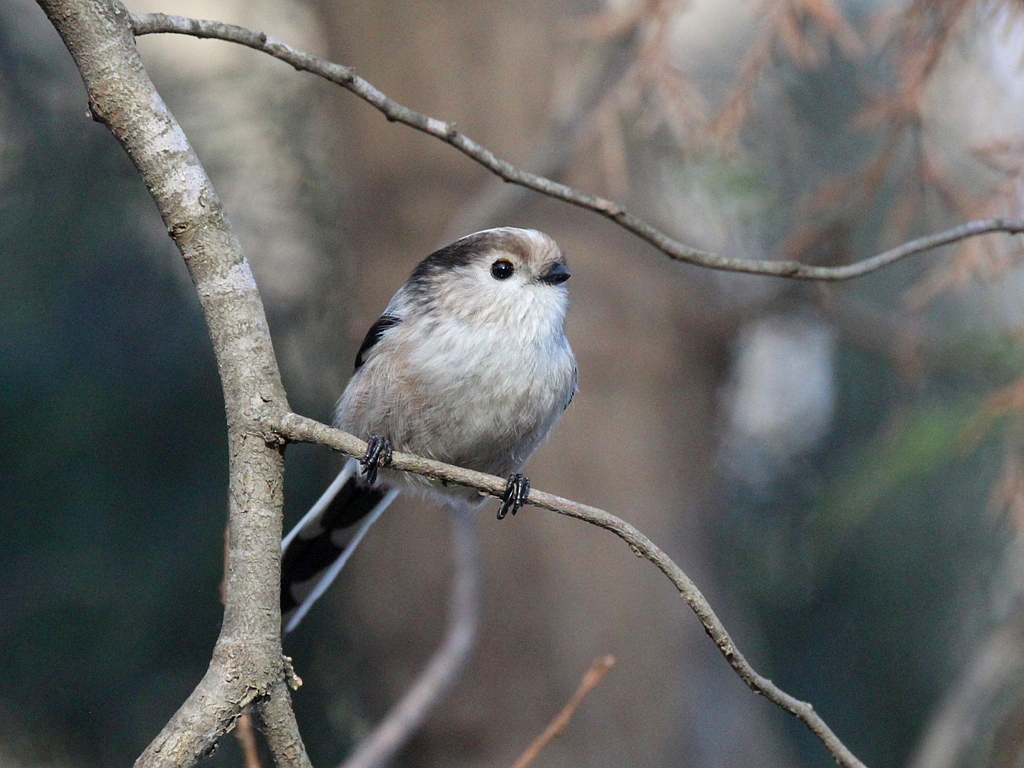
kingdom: Animalia
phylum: Chordata
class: Aves
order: Passeriformes
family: Aegithalidae
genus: Aegithalos
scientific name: Aegithalos caudatus
